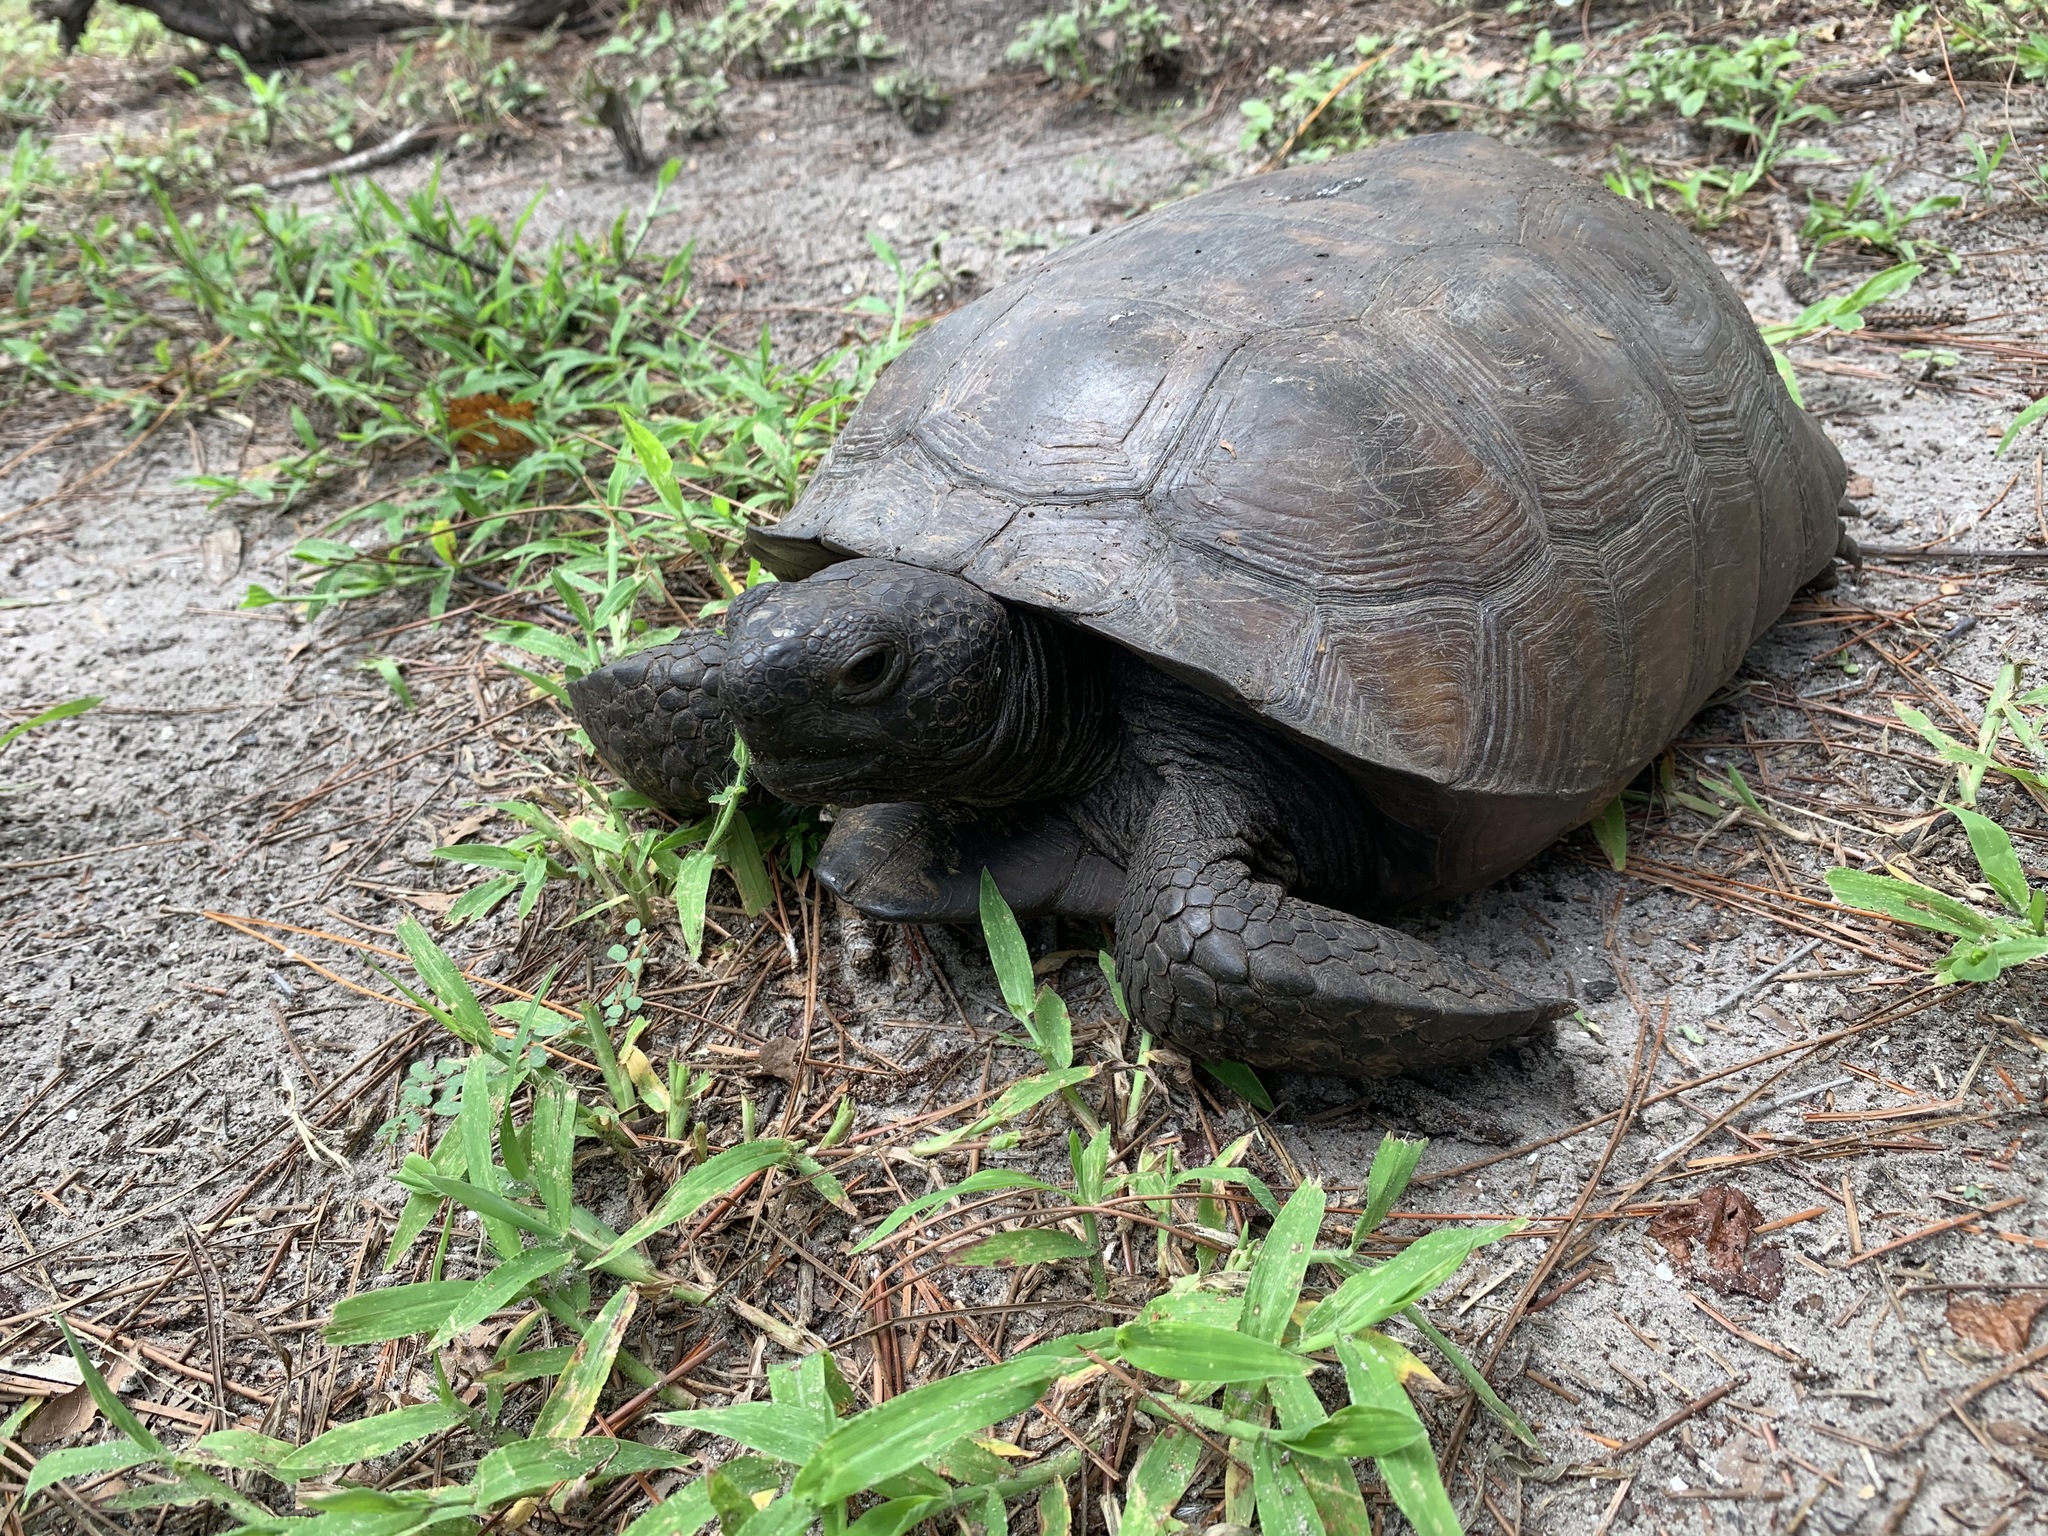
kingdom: Animalia
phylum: Chordata
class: Testudines
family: Testudinidae
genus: Gopherus
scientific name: Gopherus polyphemus
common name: Florida gopher tortoise
